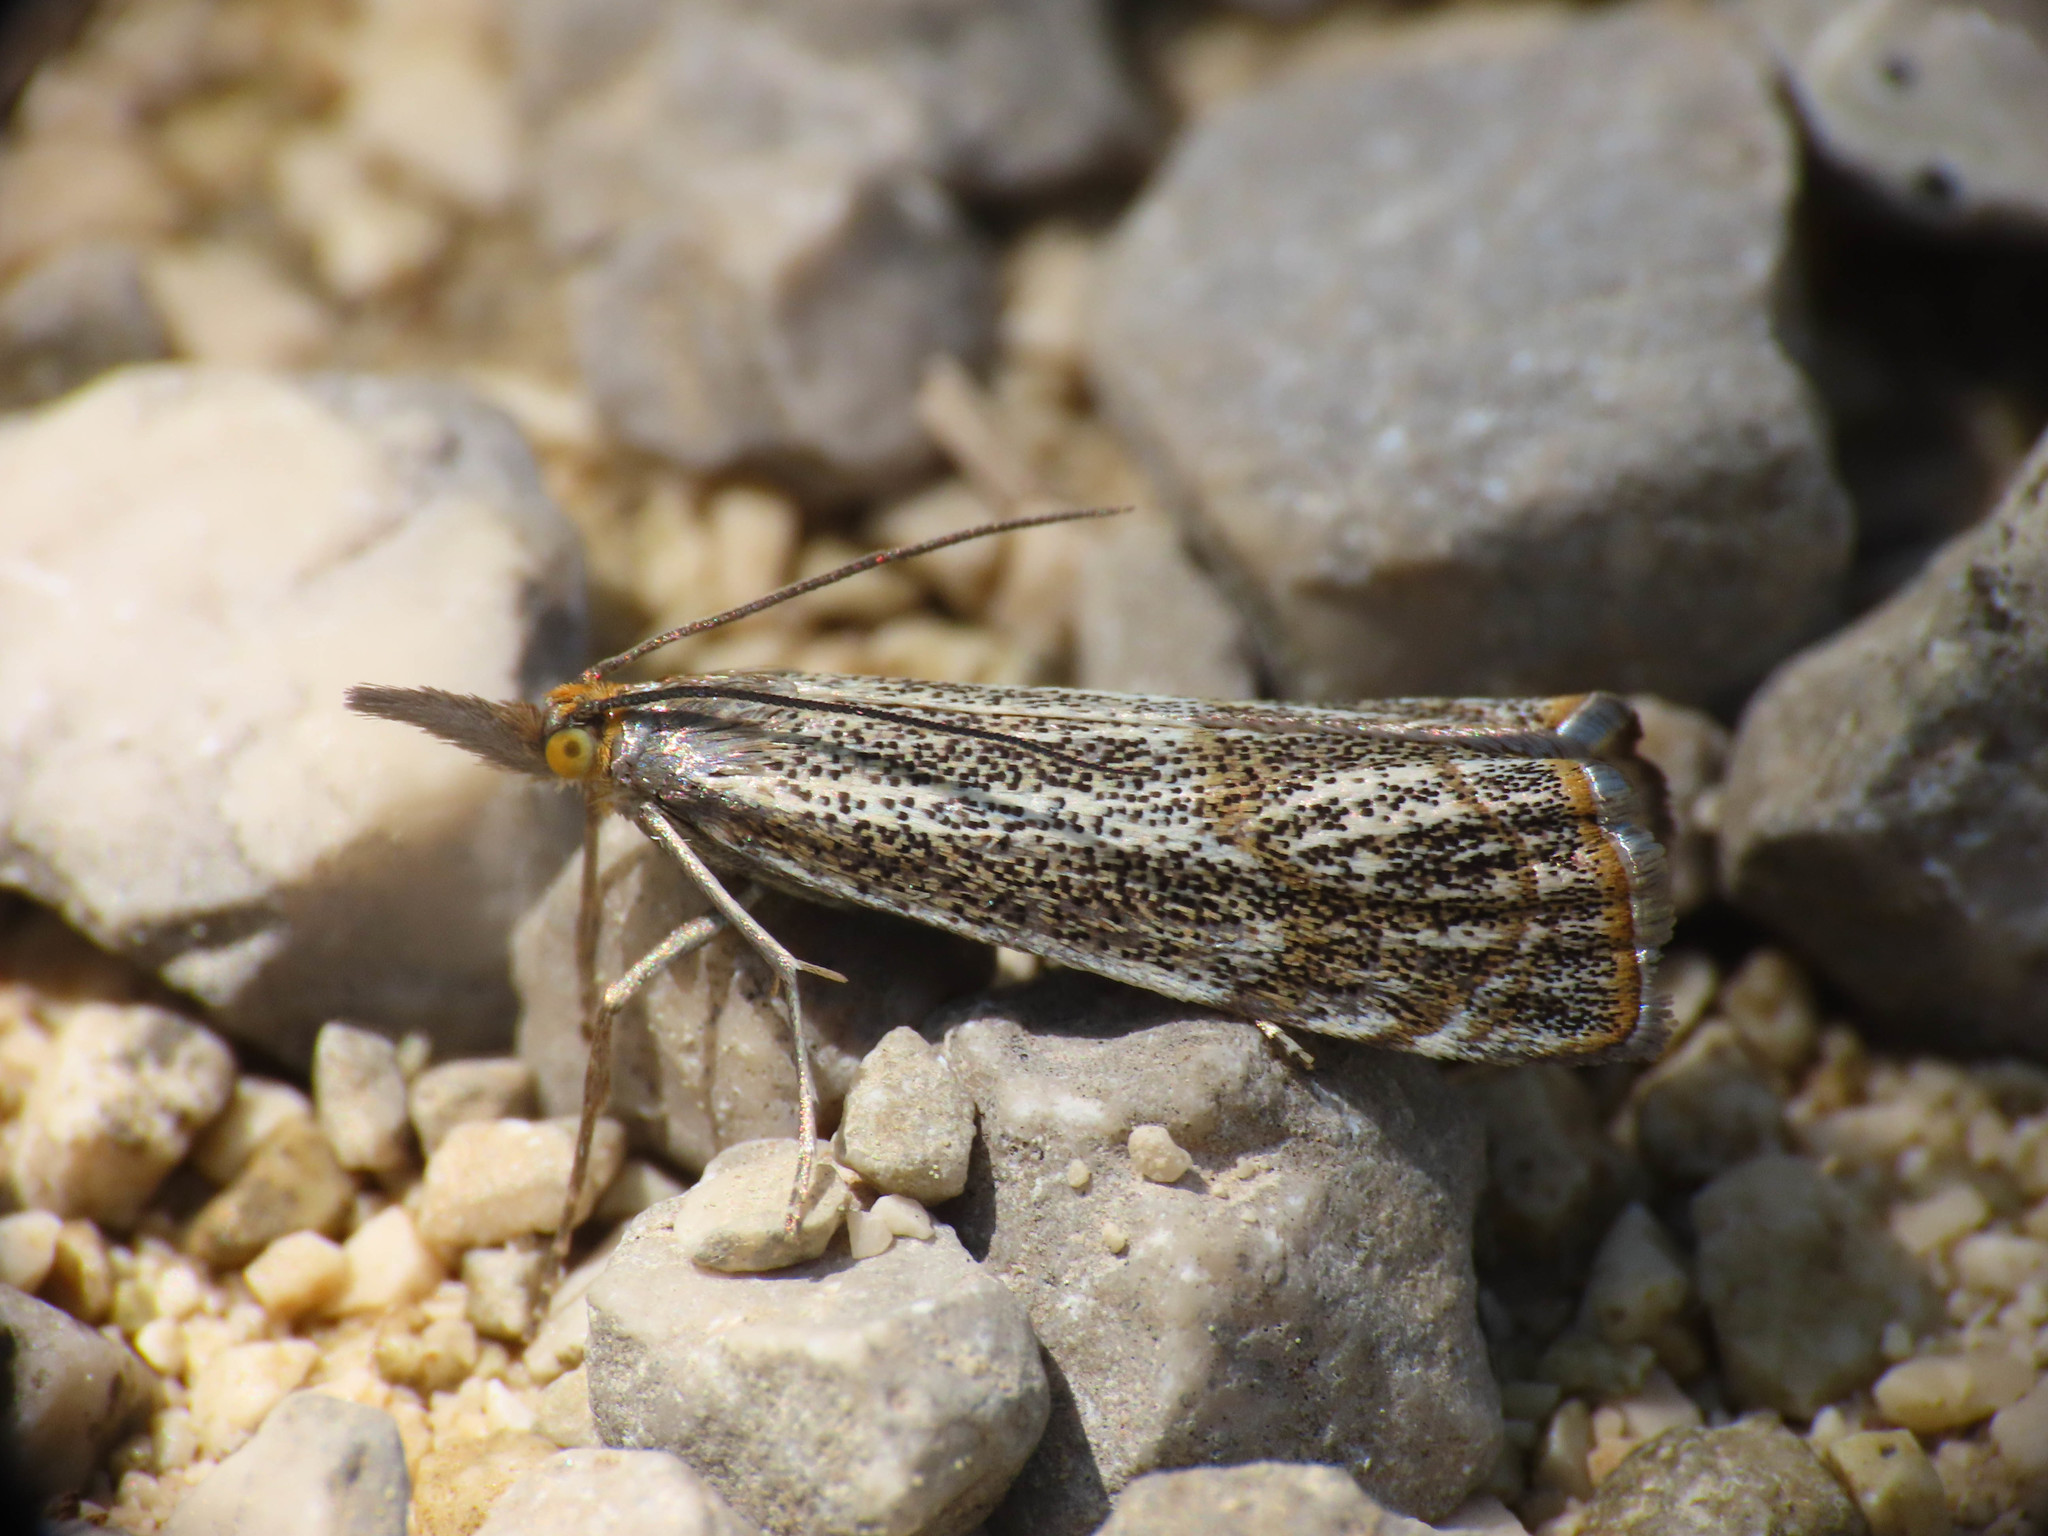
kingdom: Animalia
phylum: Arthropoda
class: Insecta
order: Lepidoptera
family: Crambidae
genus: Thisanotia
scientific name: Thisanotia chrysonuchella
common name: Powdered grass-veneer
